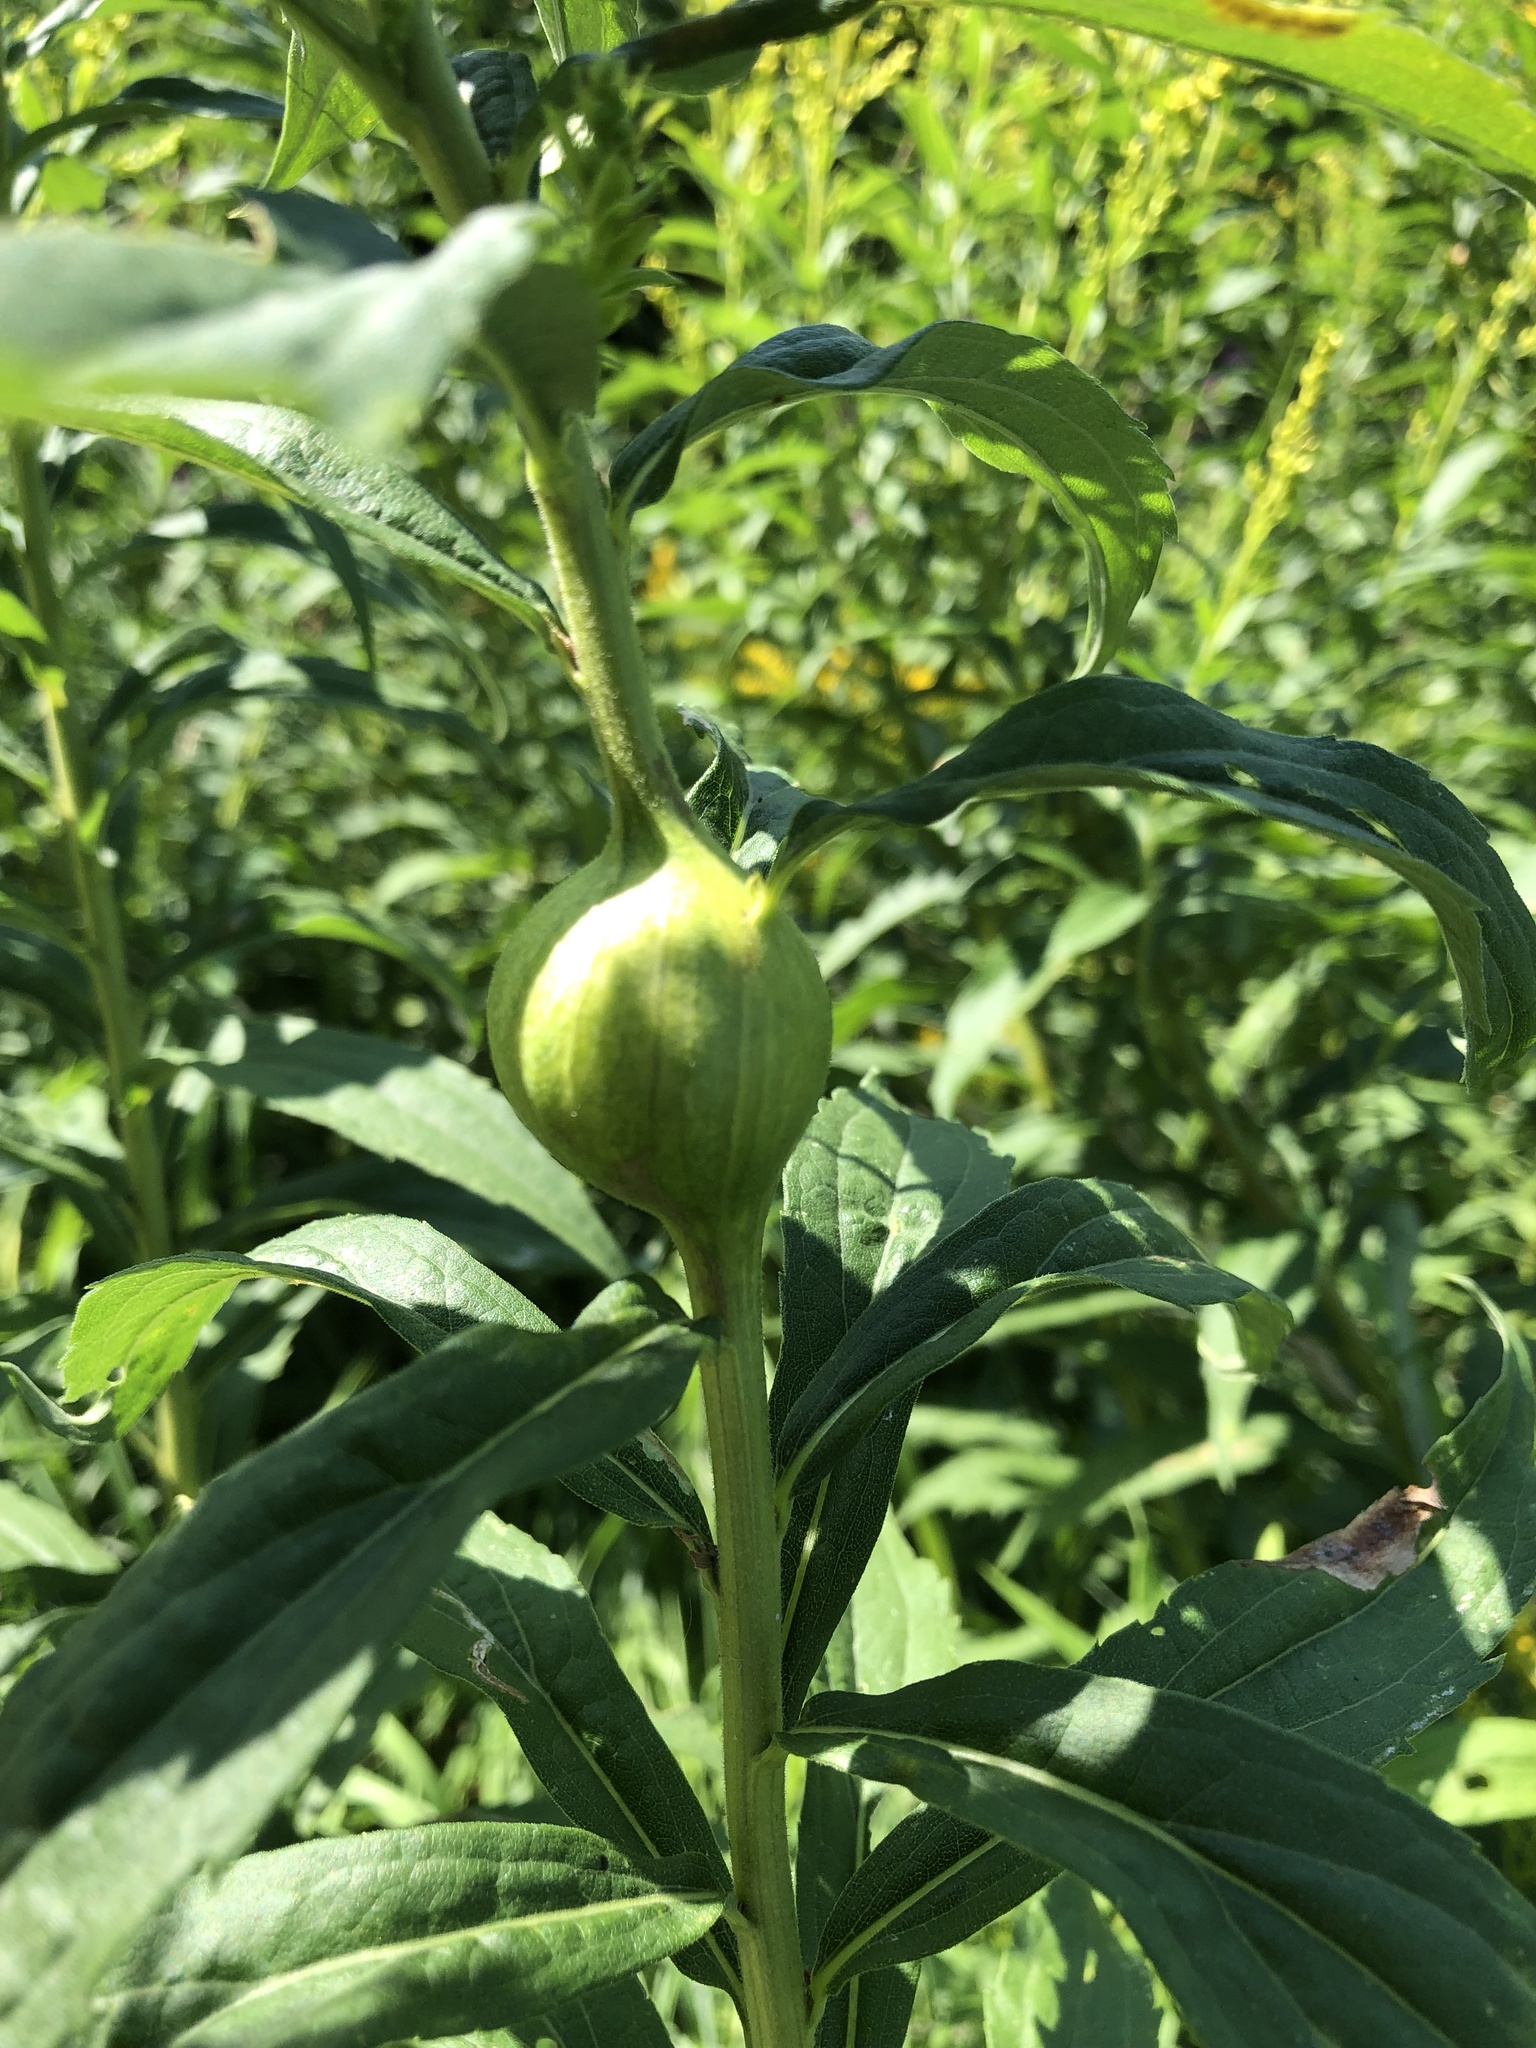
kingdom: Animalia
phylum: Arthropoda
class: Insecta
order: Diptera
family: Tephritidae
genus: Eurosta
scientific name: Eurosta solidaginis
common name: Goldenrod gall fly
